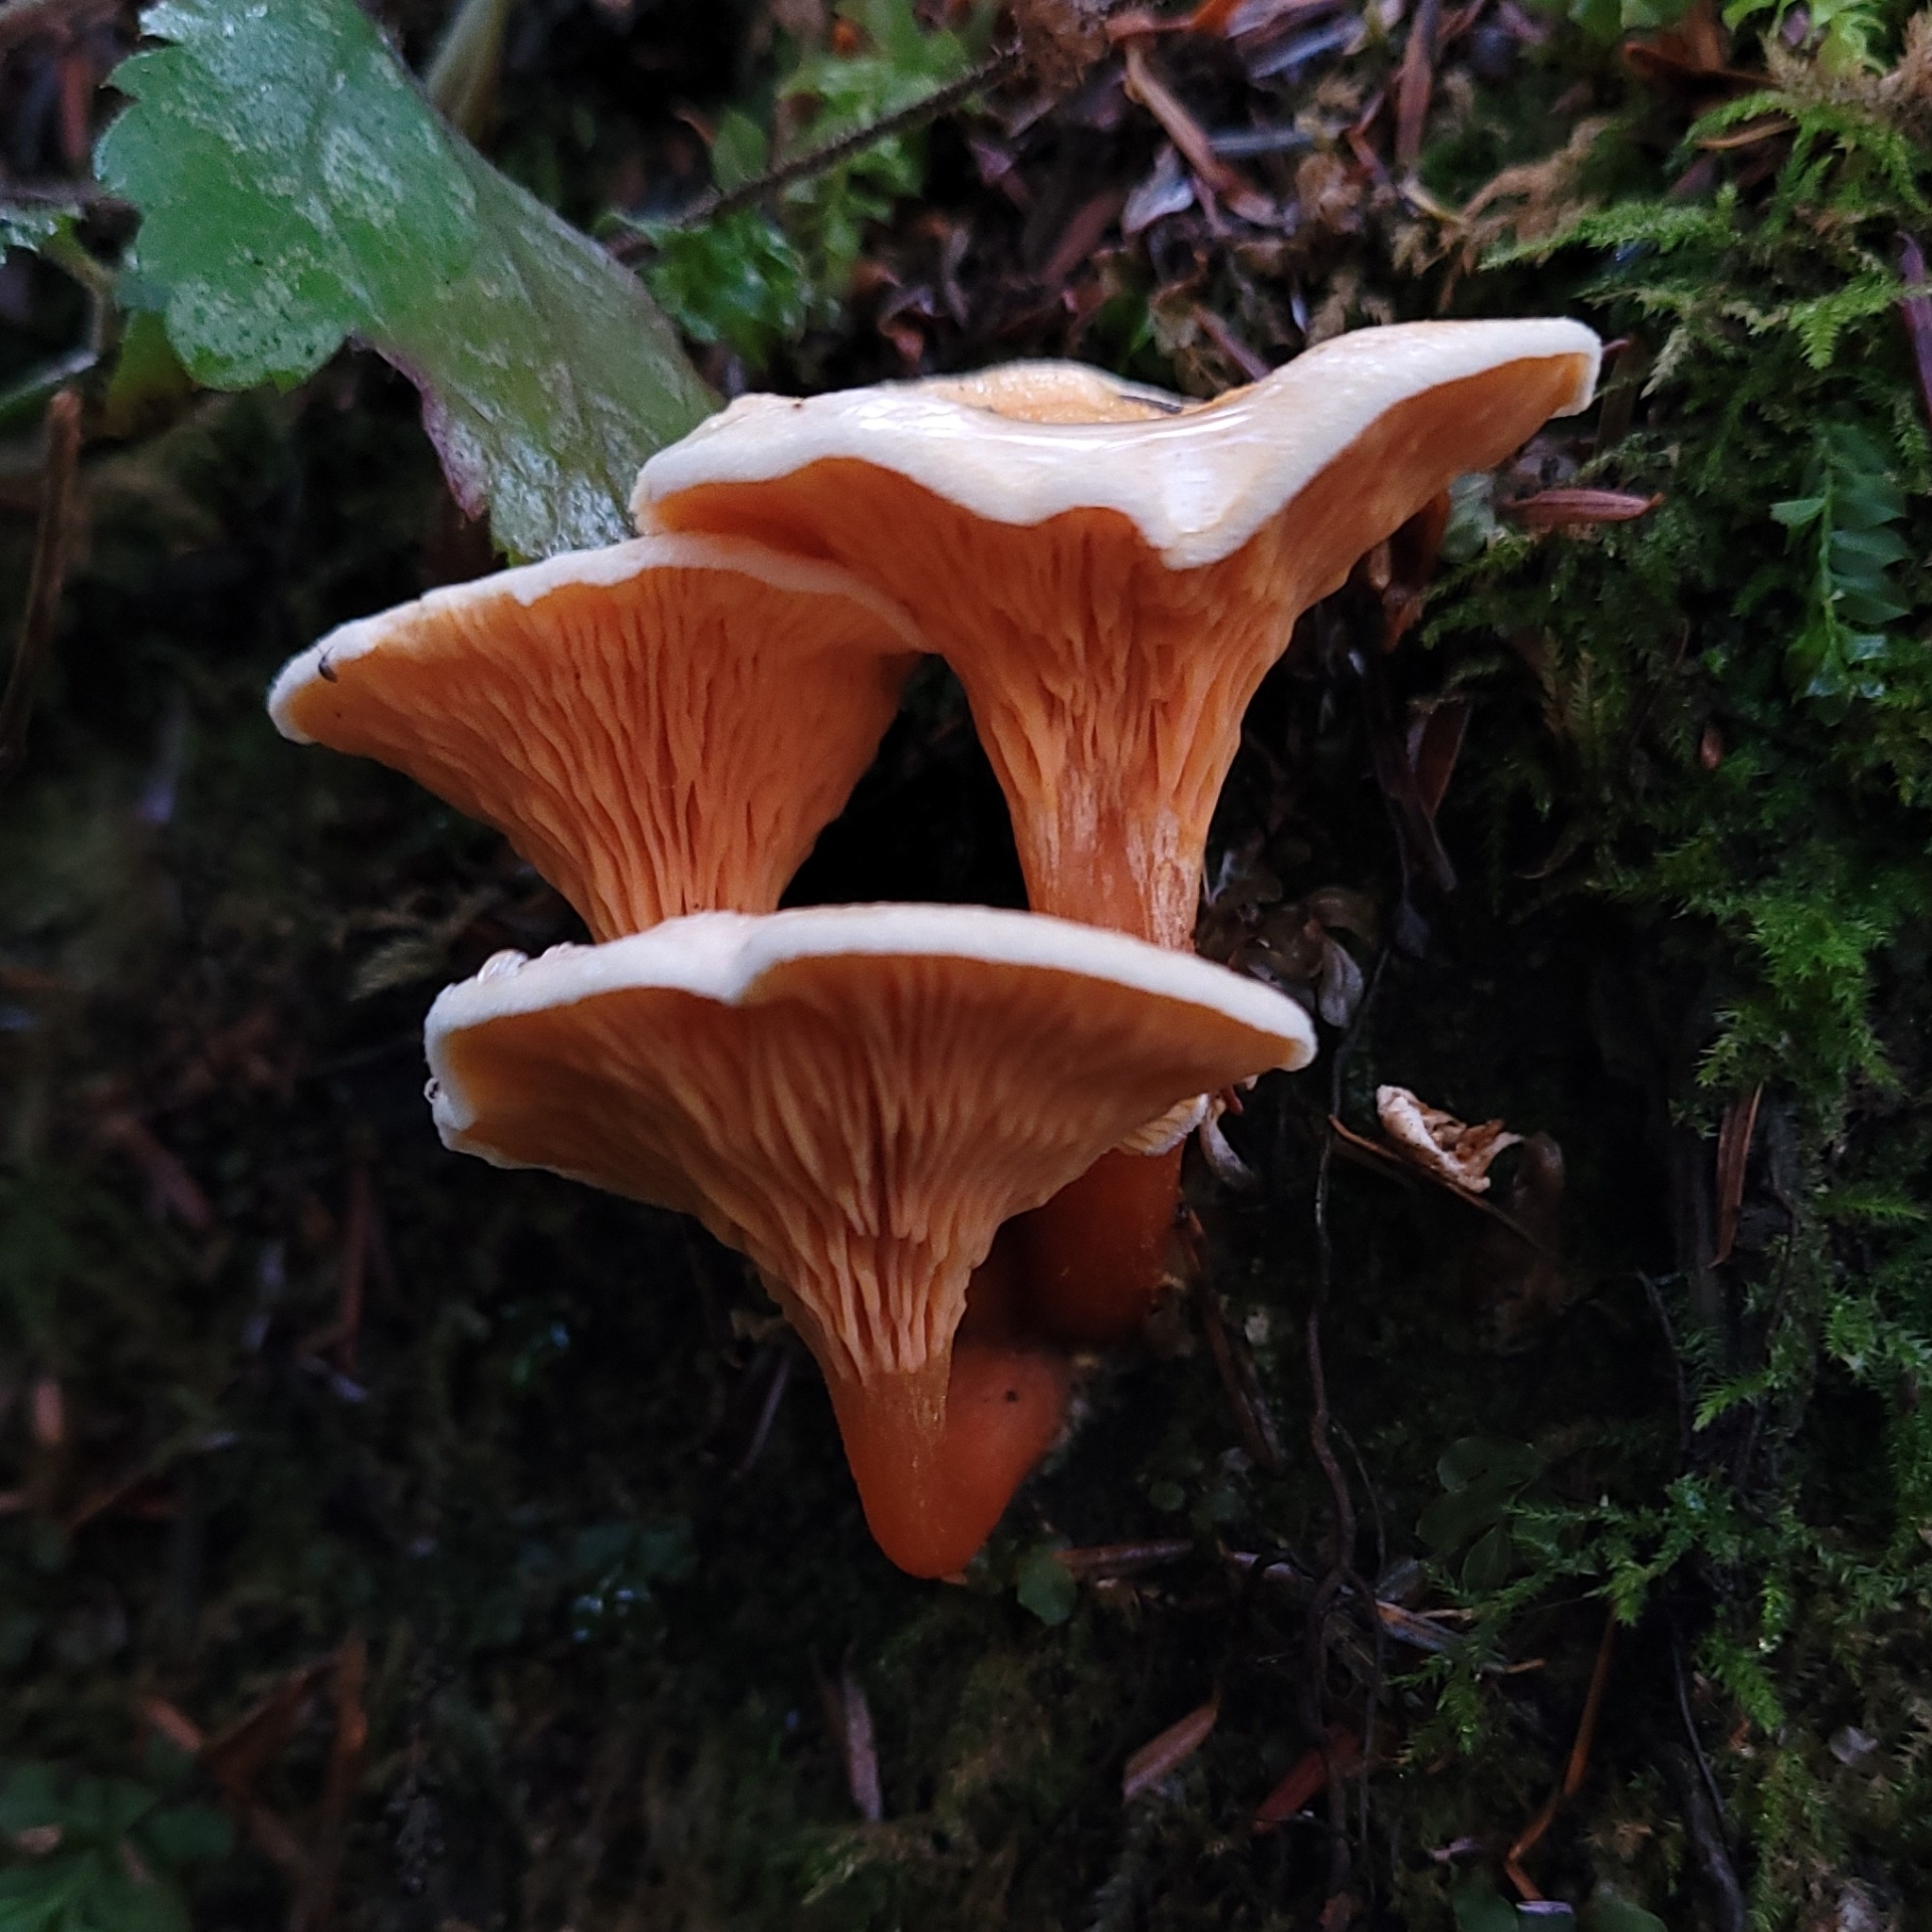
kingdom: Fungi
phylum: Basidiomycota
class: Agaricomycetes
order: Boletales
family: Hygrophoropsidaceae
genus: Hygrophoropsis
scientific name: Hygrophoropsis aurantiaca
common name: False chanterelle
